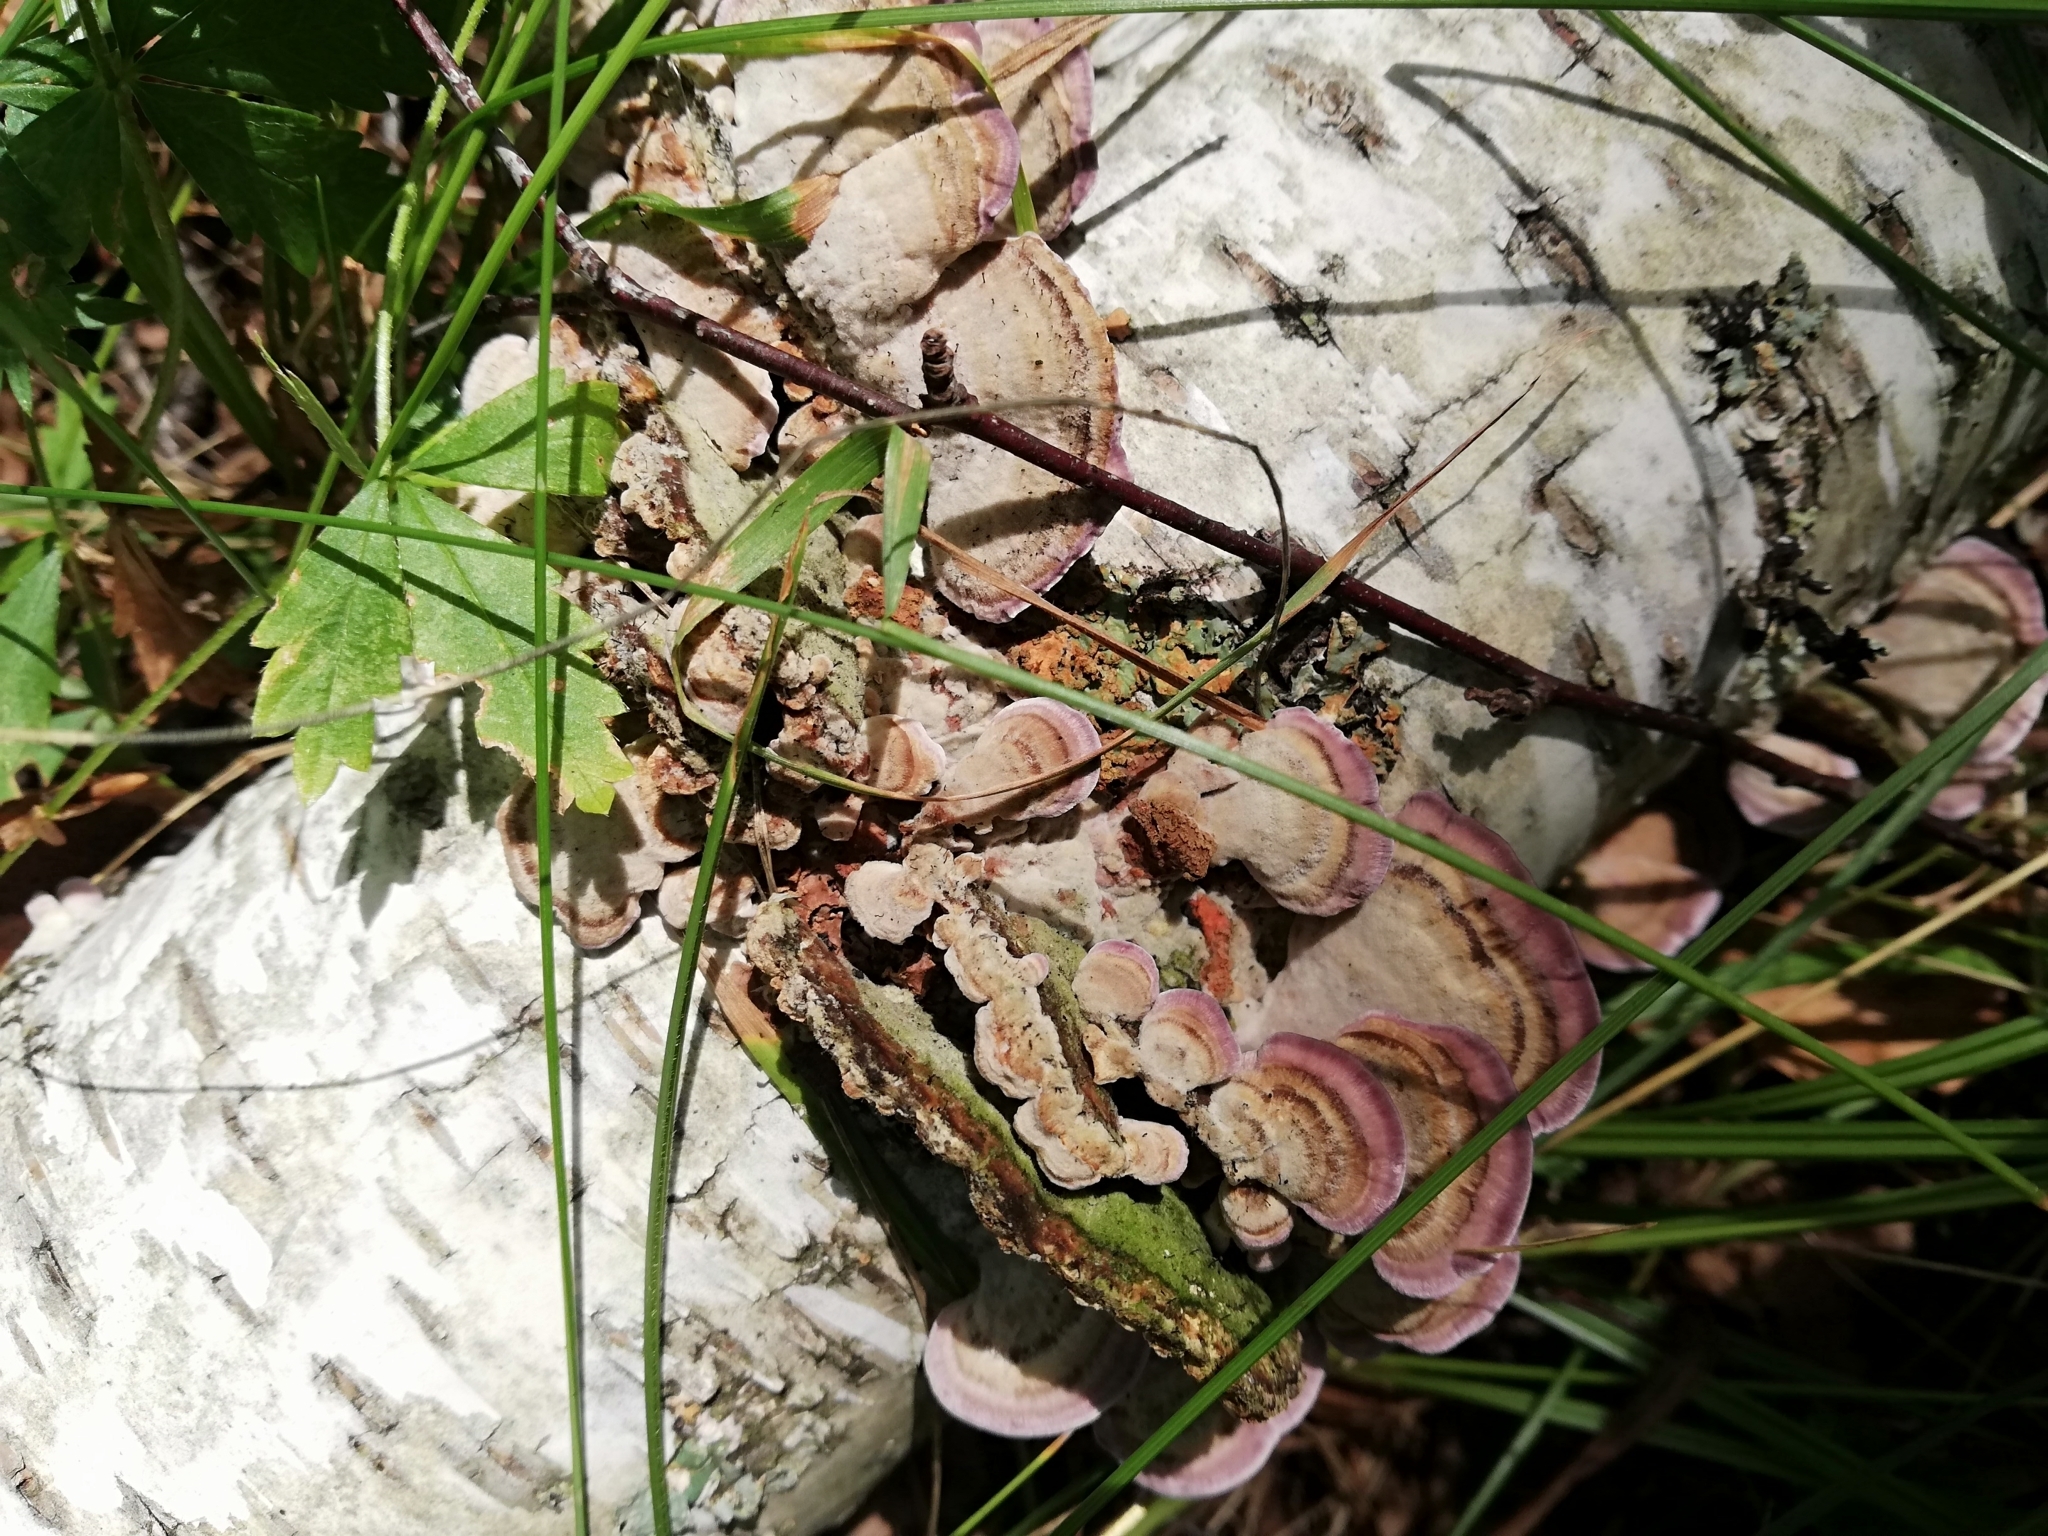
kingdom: Fungi
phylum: Basidiomycota
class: Agaricomycetes
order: Hymenochaetales
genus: Trichaptum
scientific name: Trichaptum biforme
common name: Violet-toothed polypore
